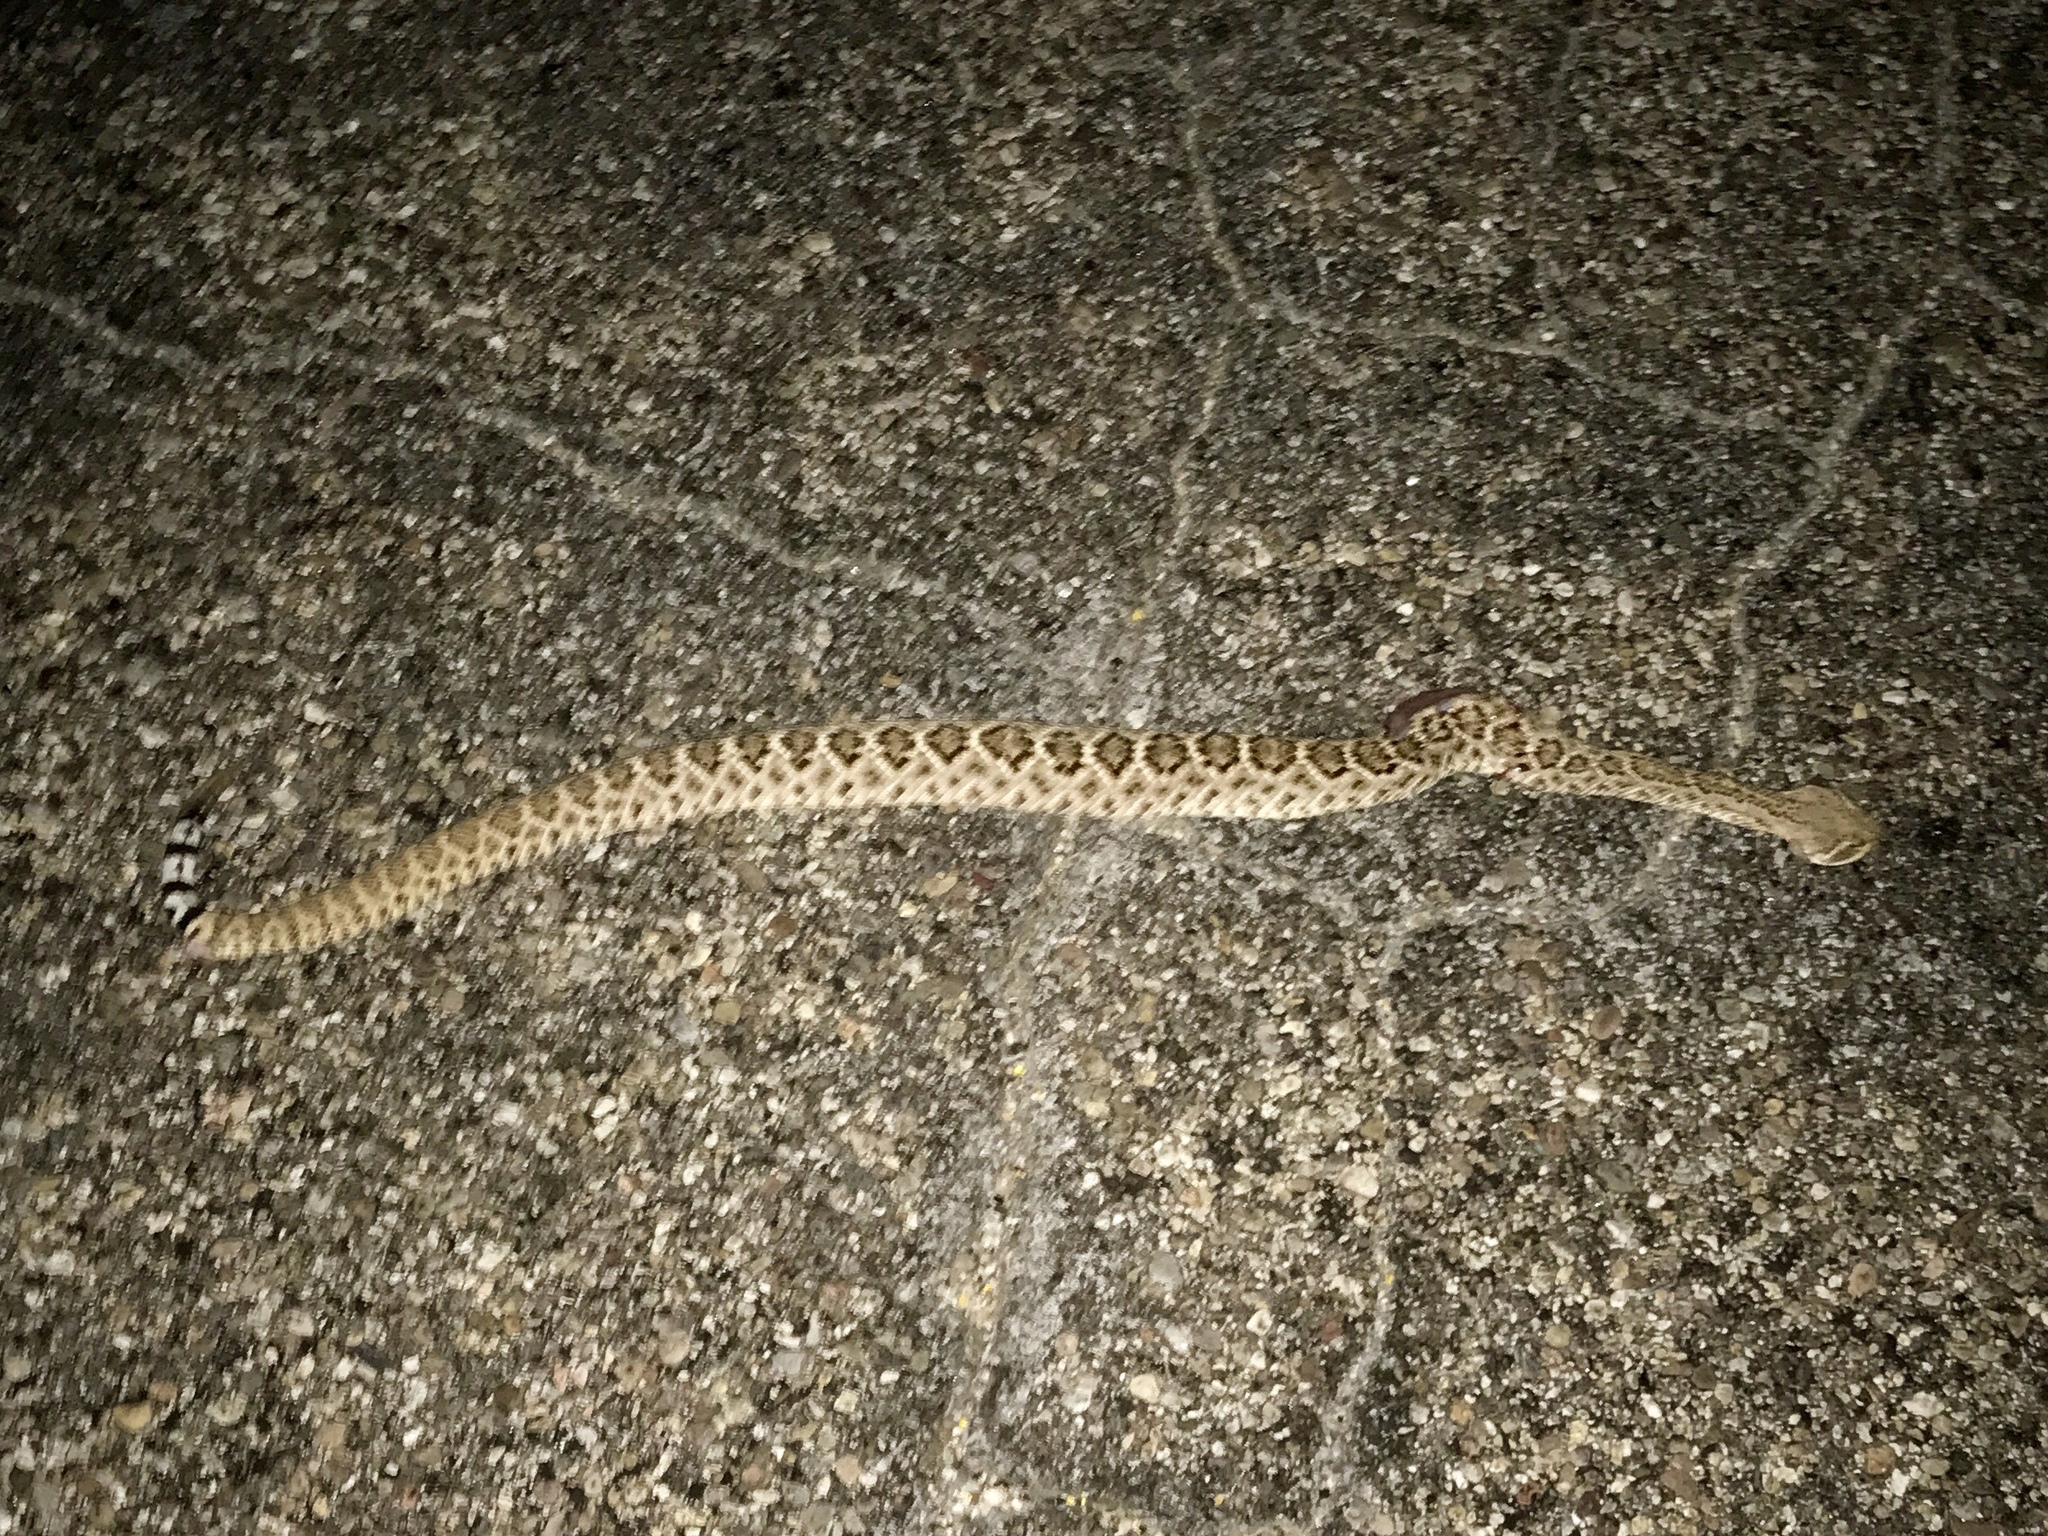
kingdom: Animalia
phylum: Chordata
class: Squamata
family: Viperidae
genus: Crotalus
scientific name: Crotalus atrox
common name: Western diamond-backed rattlesnake
